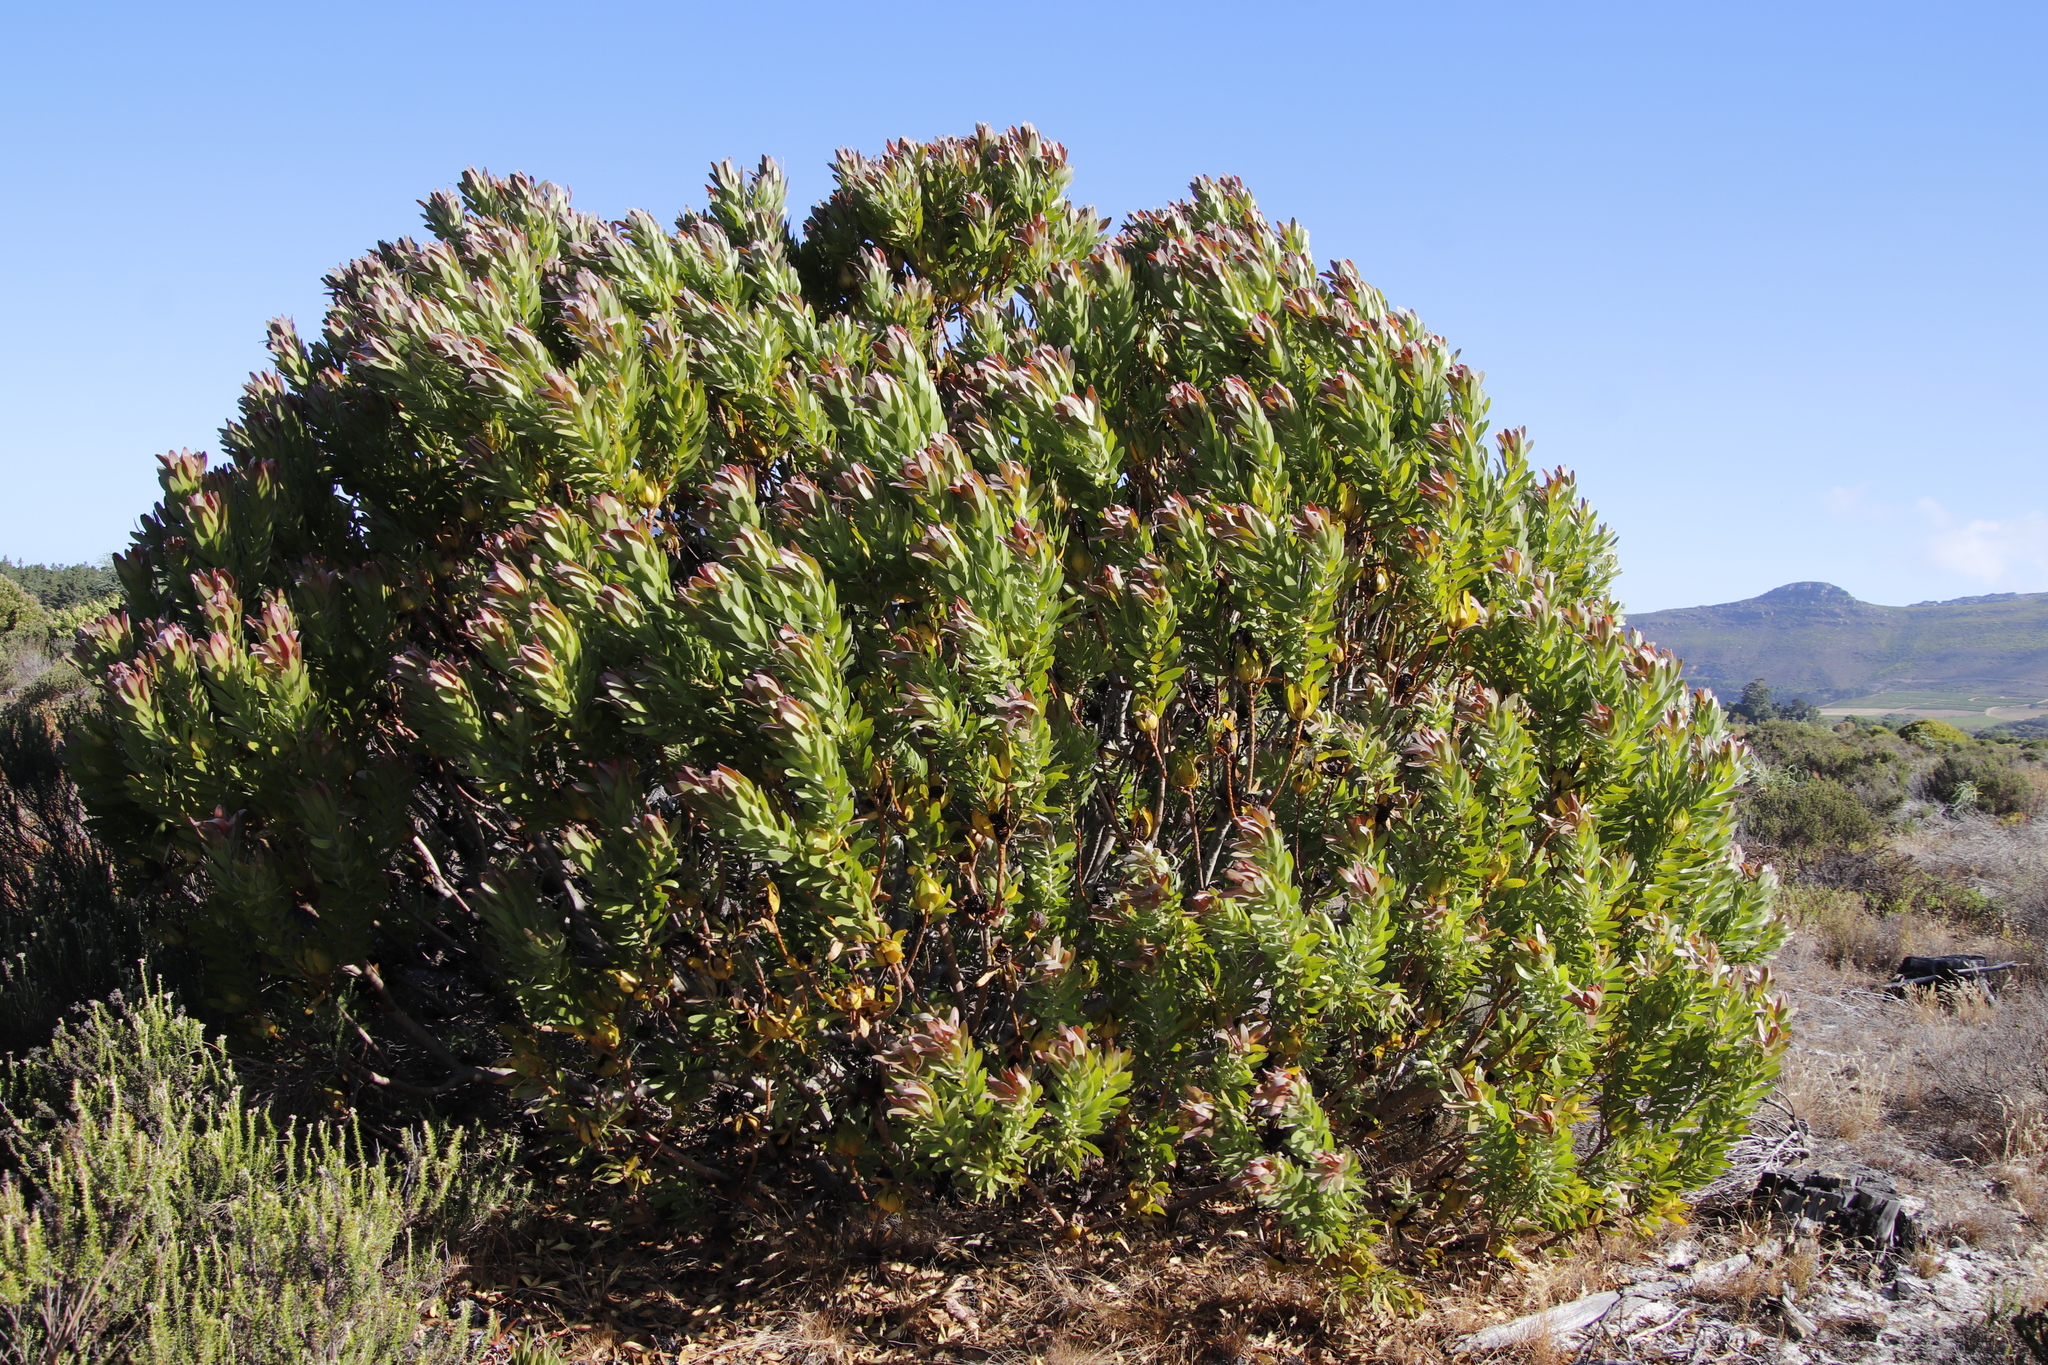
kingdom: Plantae
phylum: Tracheophyta
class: Magnoliopsida
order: Proteales
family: Proteaceae
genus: Leucadendron
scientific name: Leucadendron laureolum
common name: Golden sunshinebush
